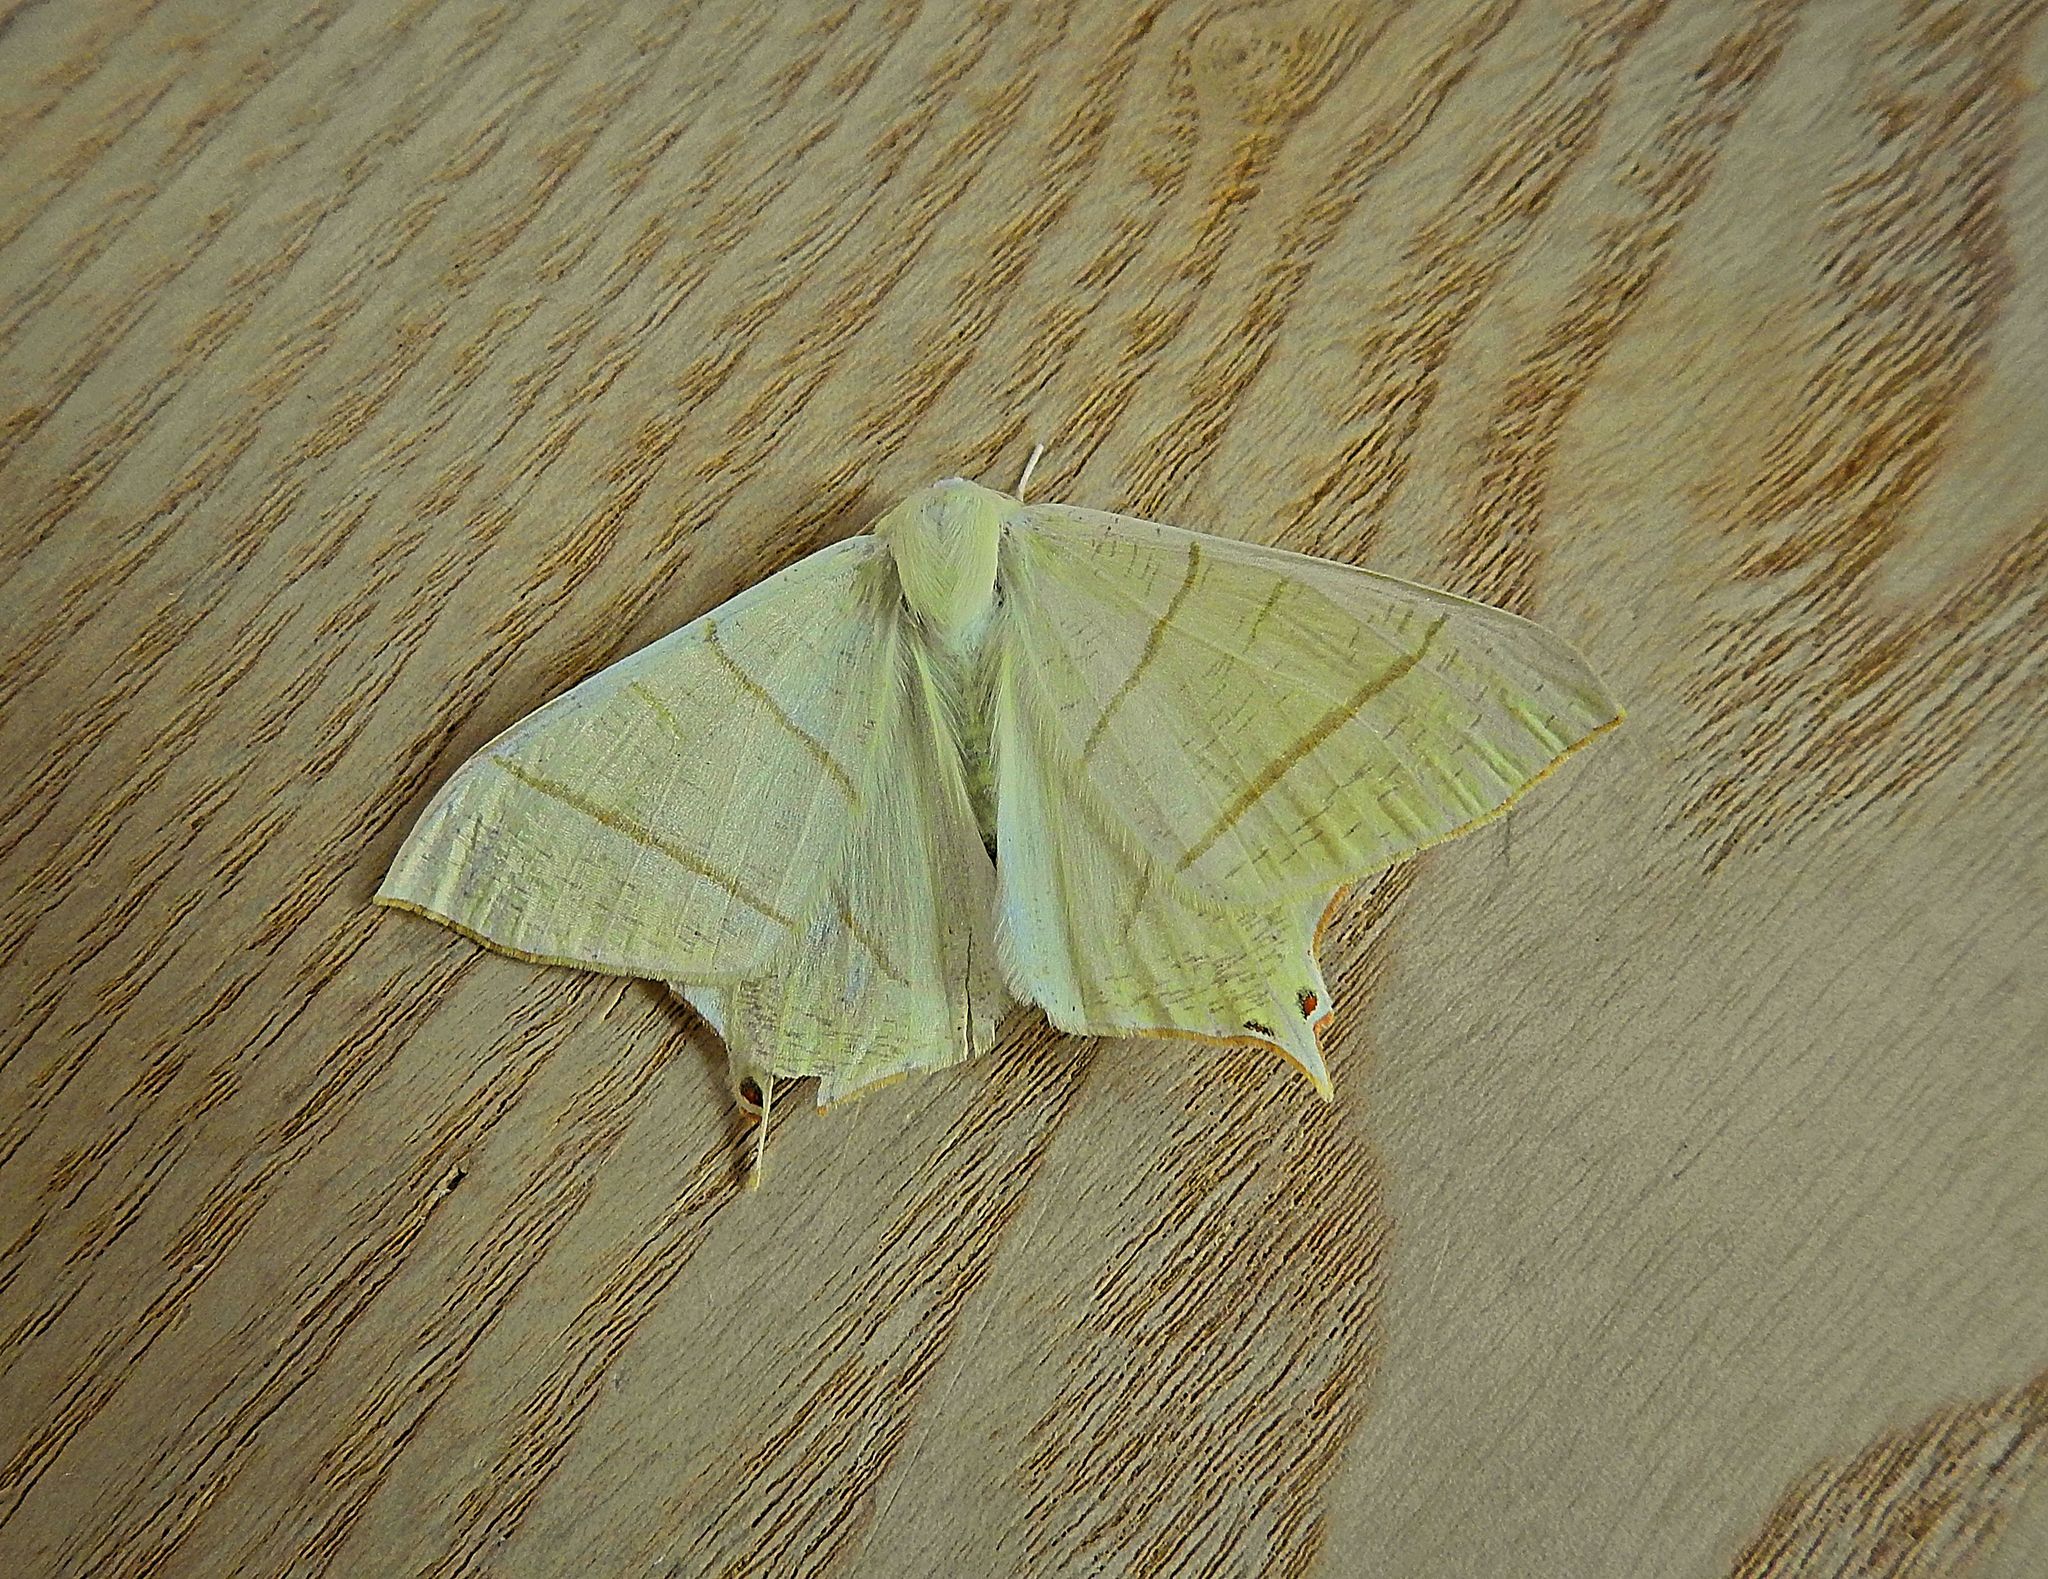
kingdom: Animalia
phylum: Arthropoda
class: Insecta
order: Lepidoptera
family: Geometridae
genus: Ourapteryx
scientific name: Ourapteryx sambucaria
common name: Swallow-tailed moth
